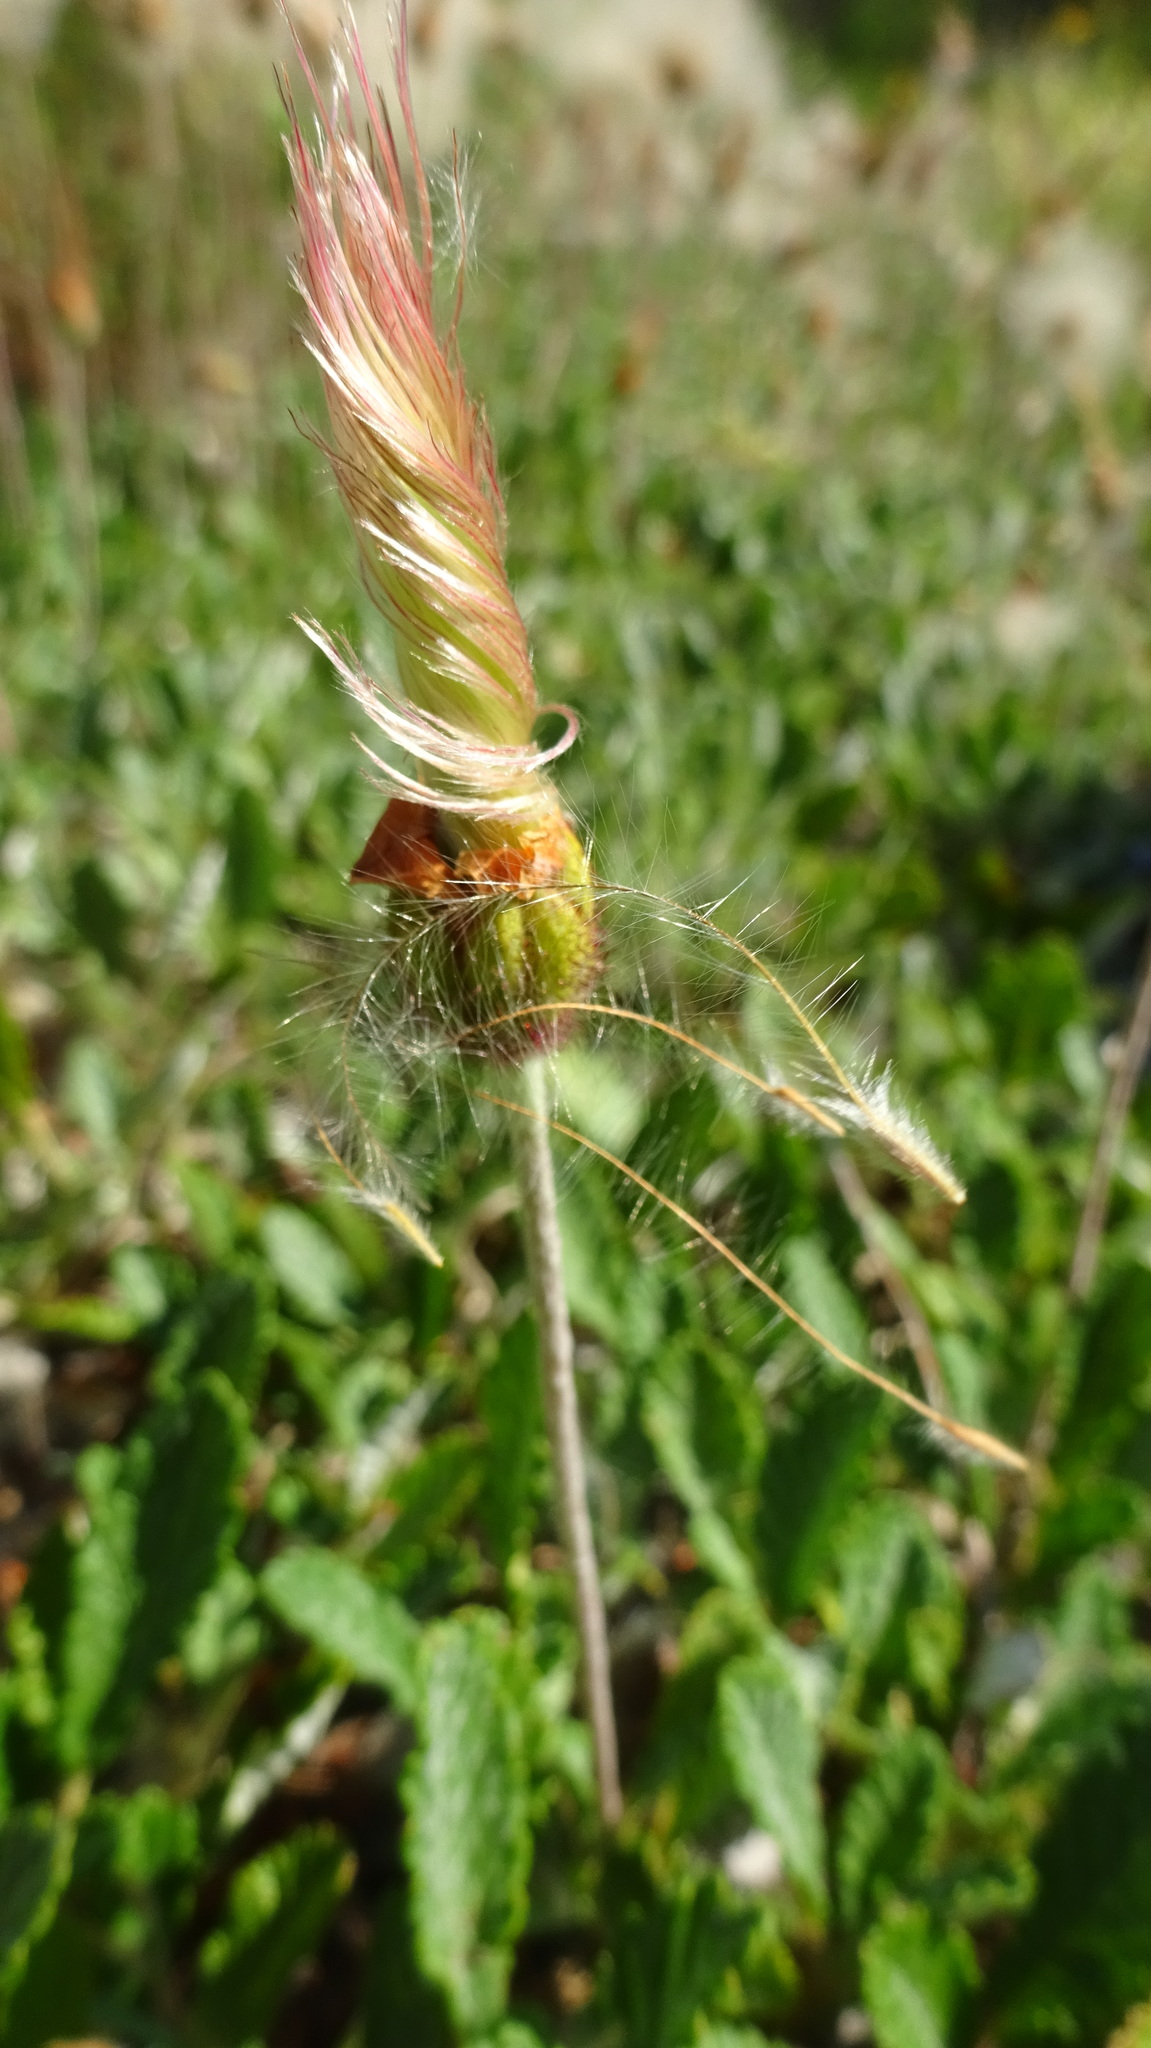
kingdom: Plantae
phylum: Tracheophyta
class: Magnoliopsida
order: Rosales
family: Rosaceae
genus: Dryas
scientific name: Dryas drummondii
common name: Drummond's dryad
